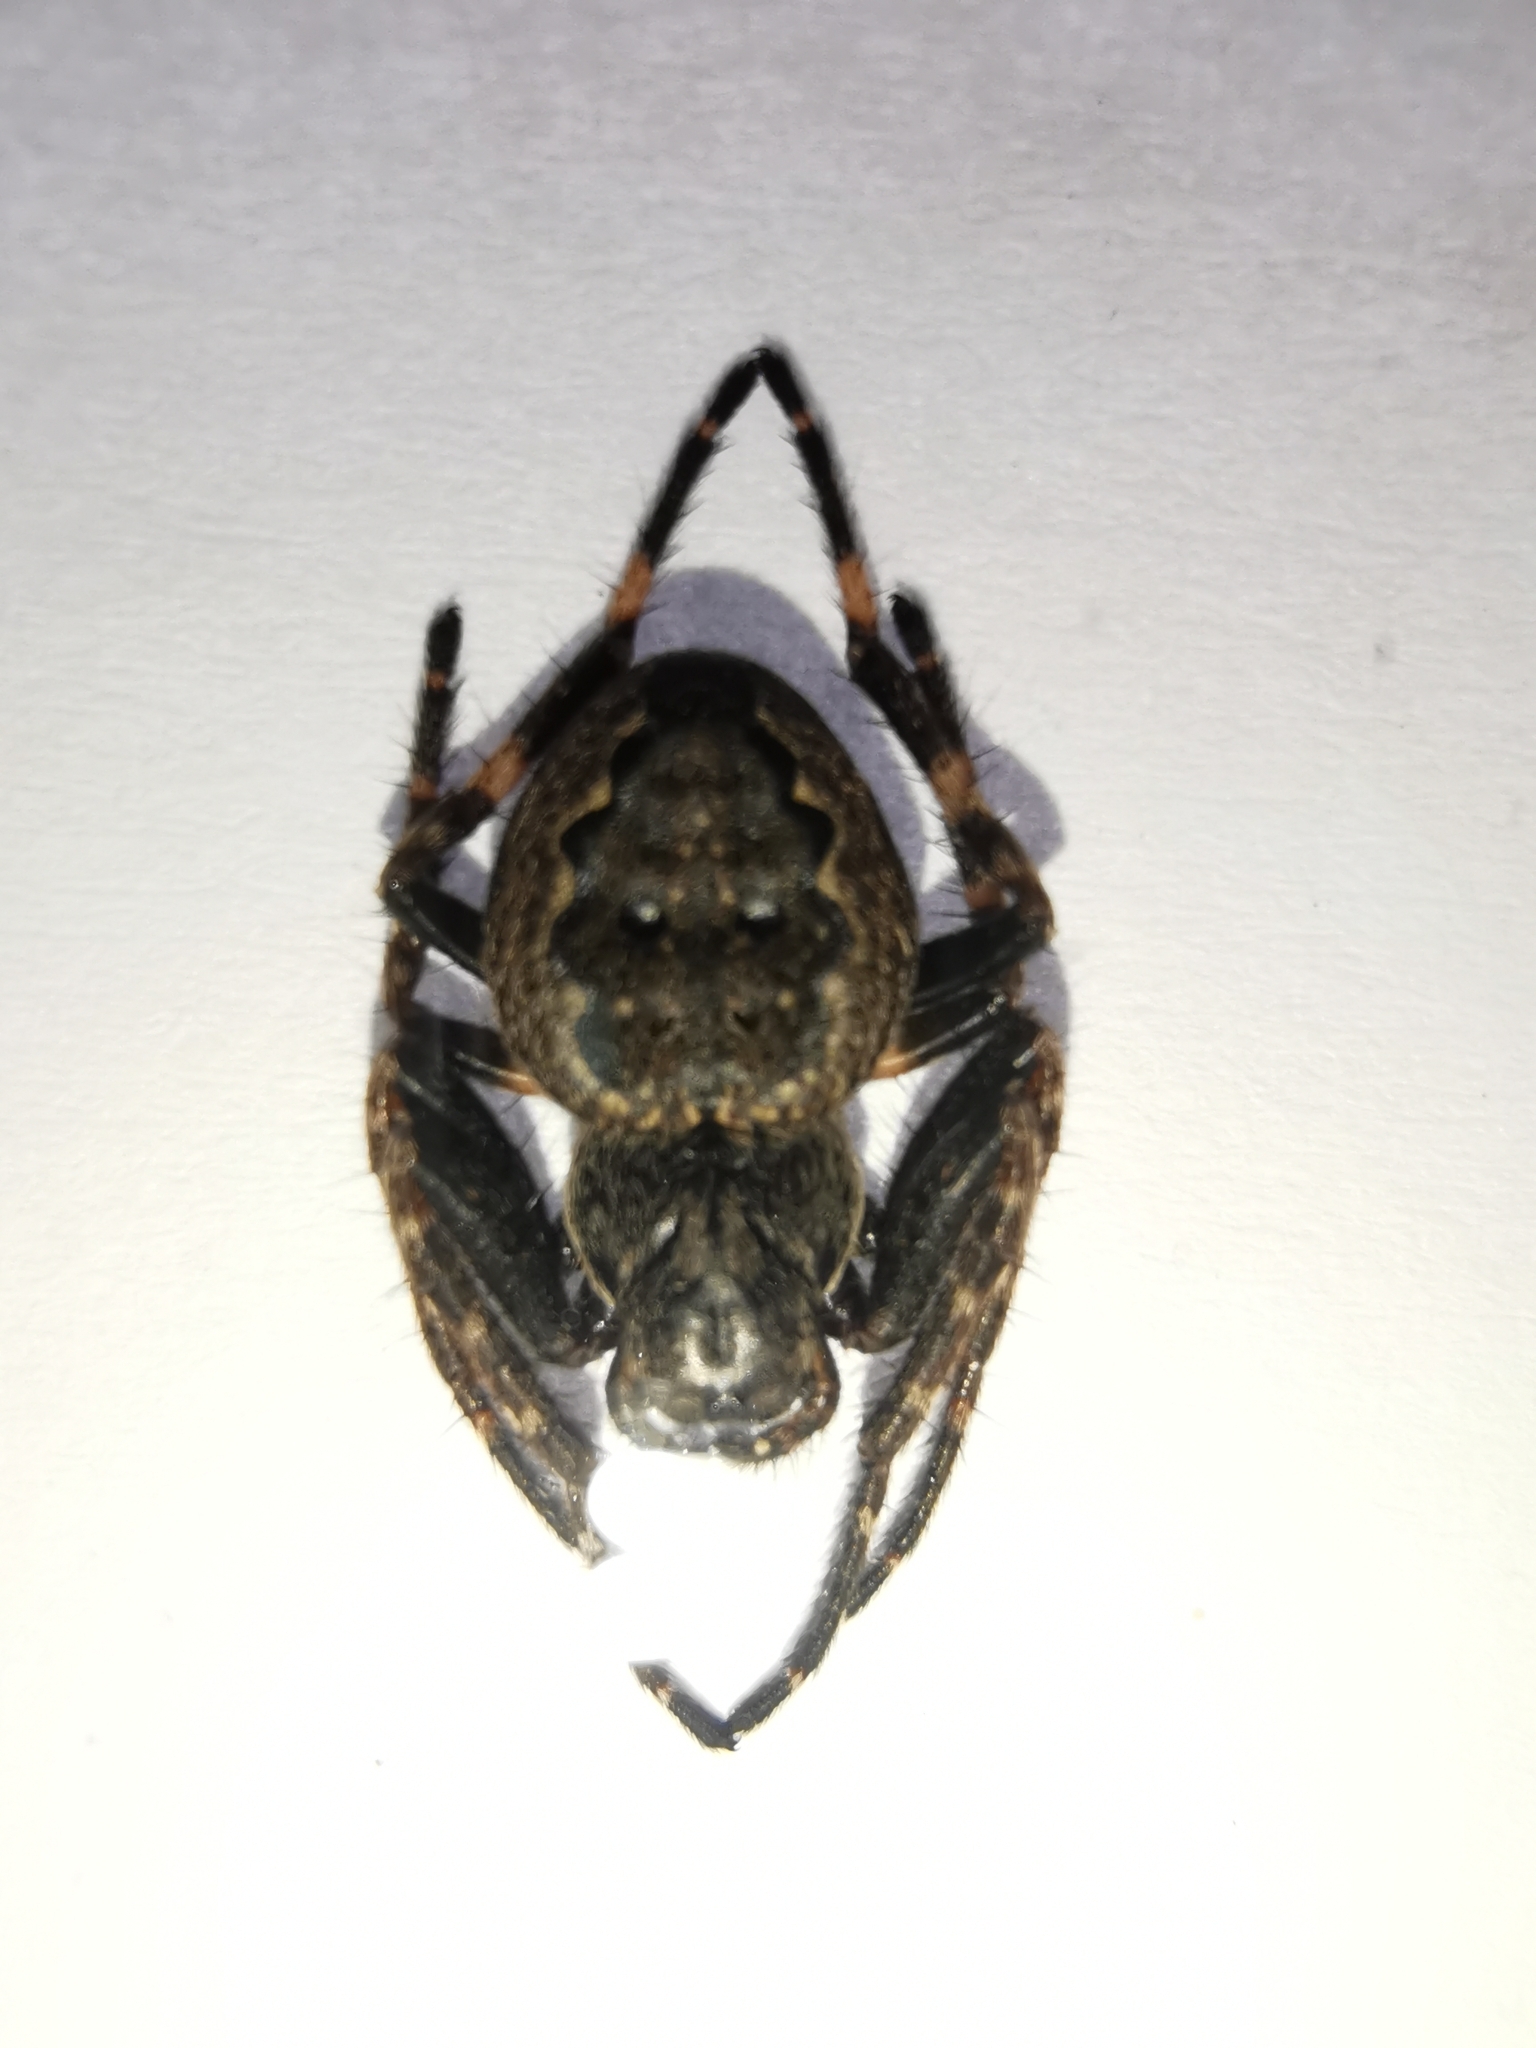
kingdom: Animalia
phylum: Arthropoda
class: Arachnida
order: Araneae
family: Araneidae
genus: Nuctenea
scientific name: Nuctenea umbratica
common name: Toad spider
